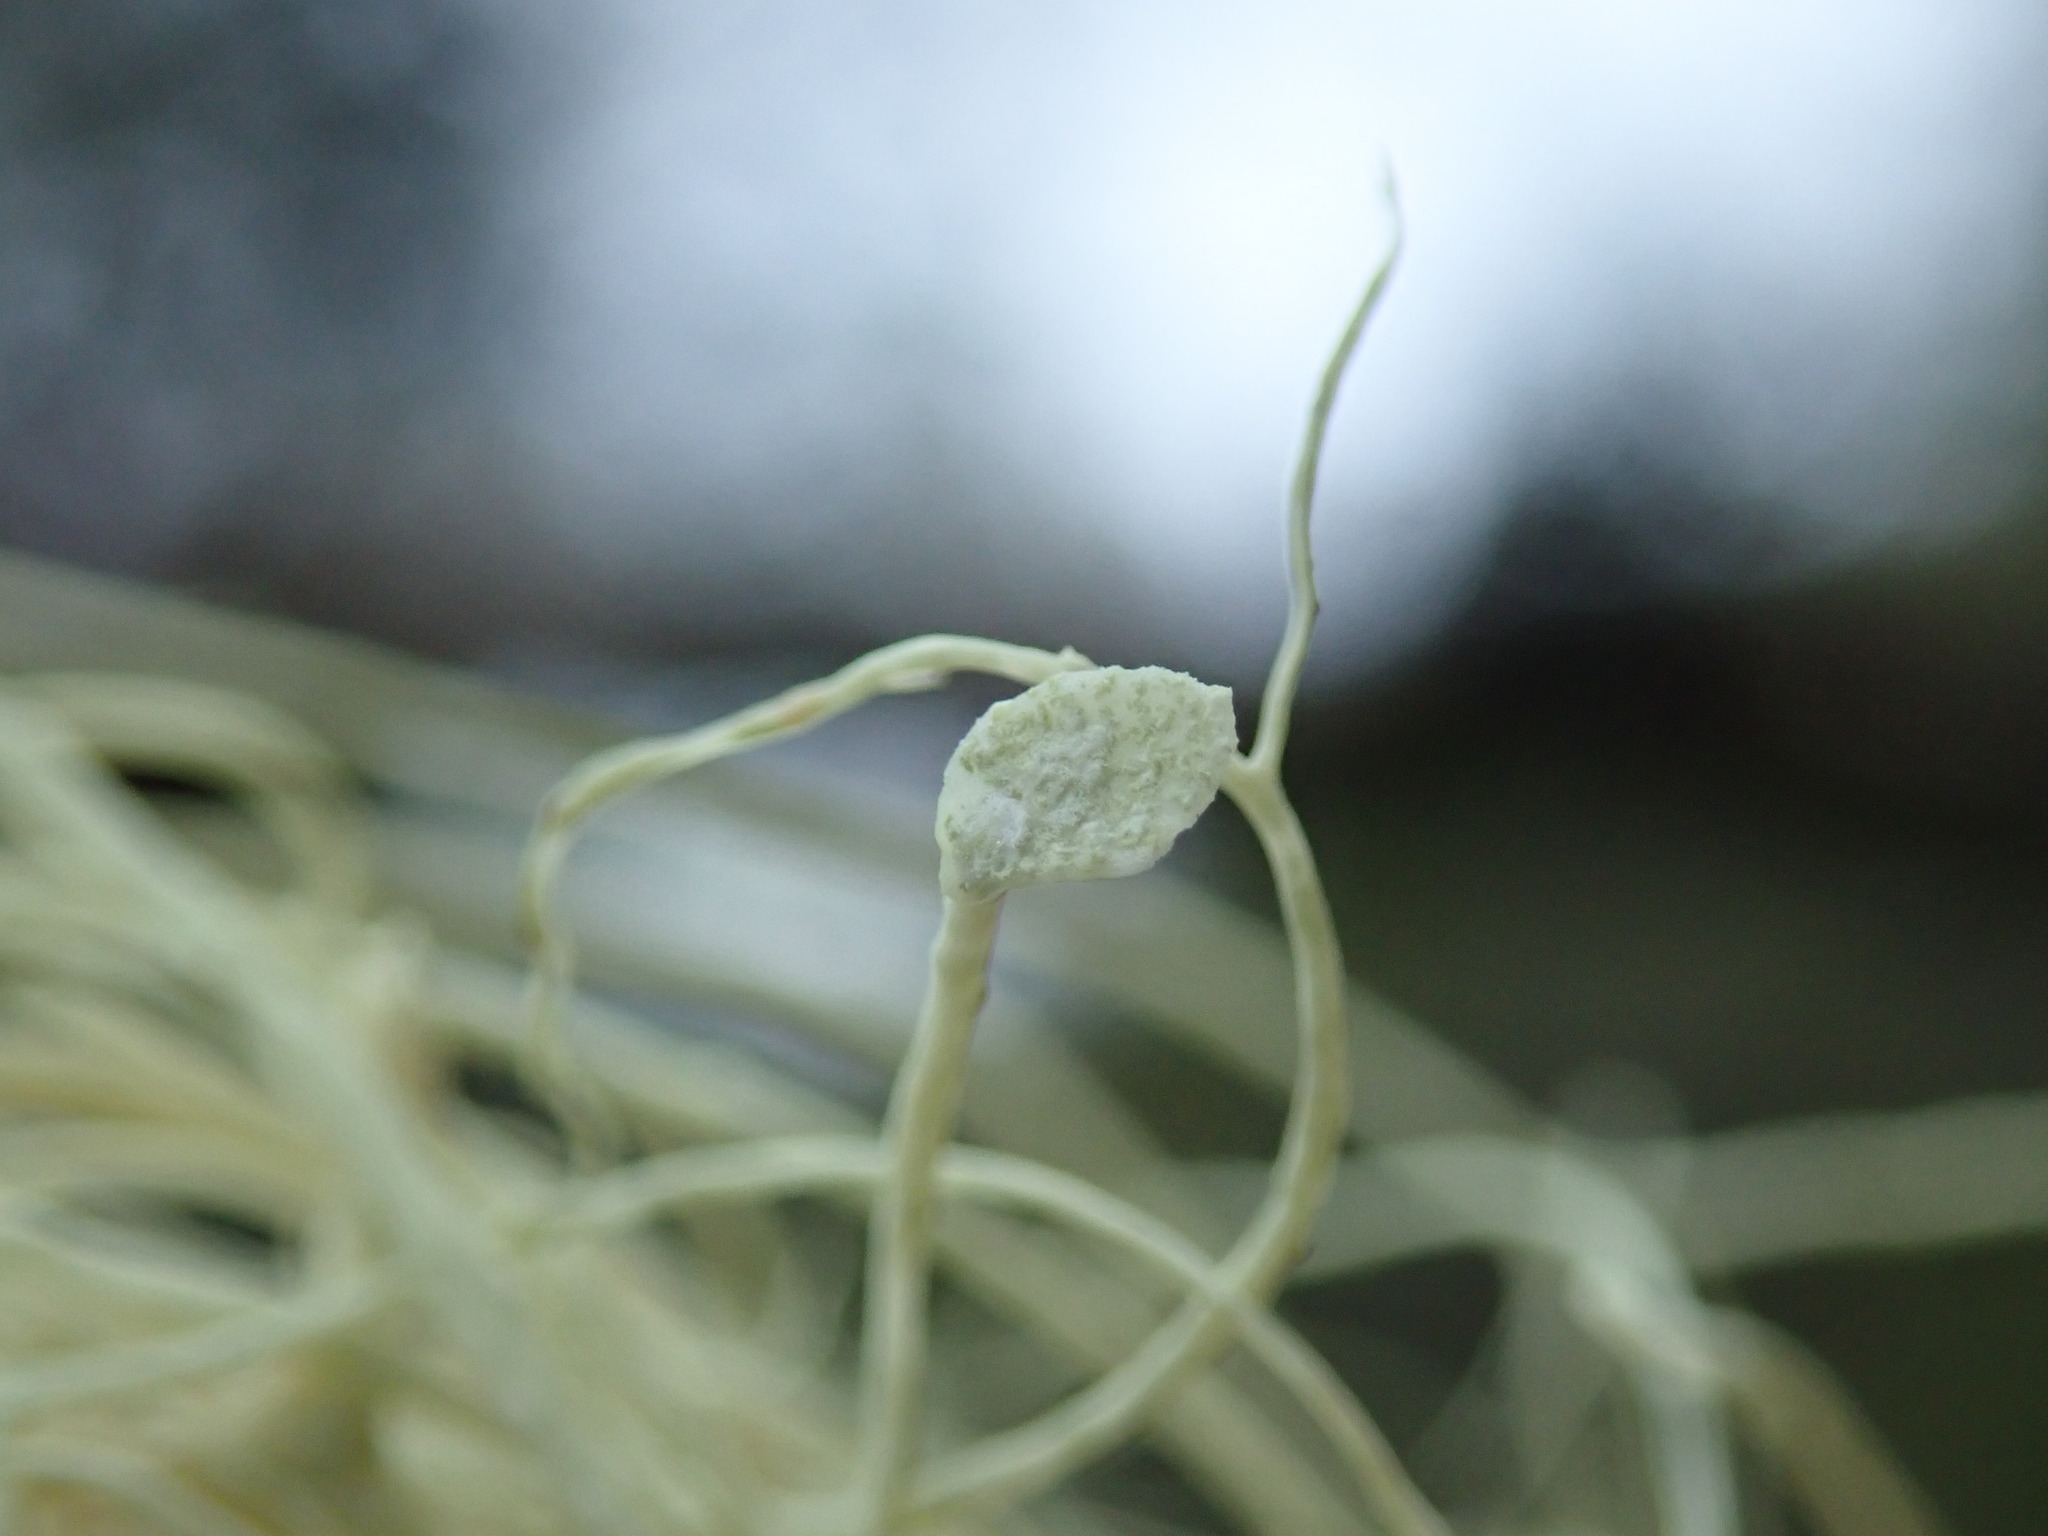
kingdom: Fungi
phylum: Ascomycota
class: Lecanoromycetes
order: Lecanorales
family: Parmeliaceae
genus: Alectoria
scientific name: Alectoria vancouverensis
